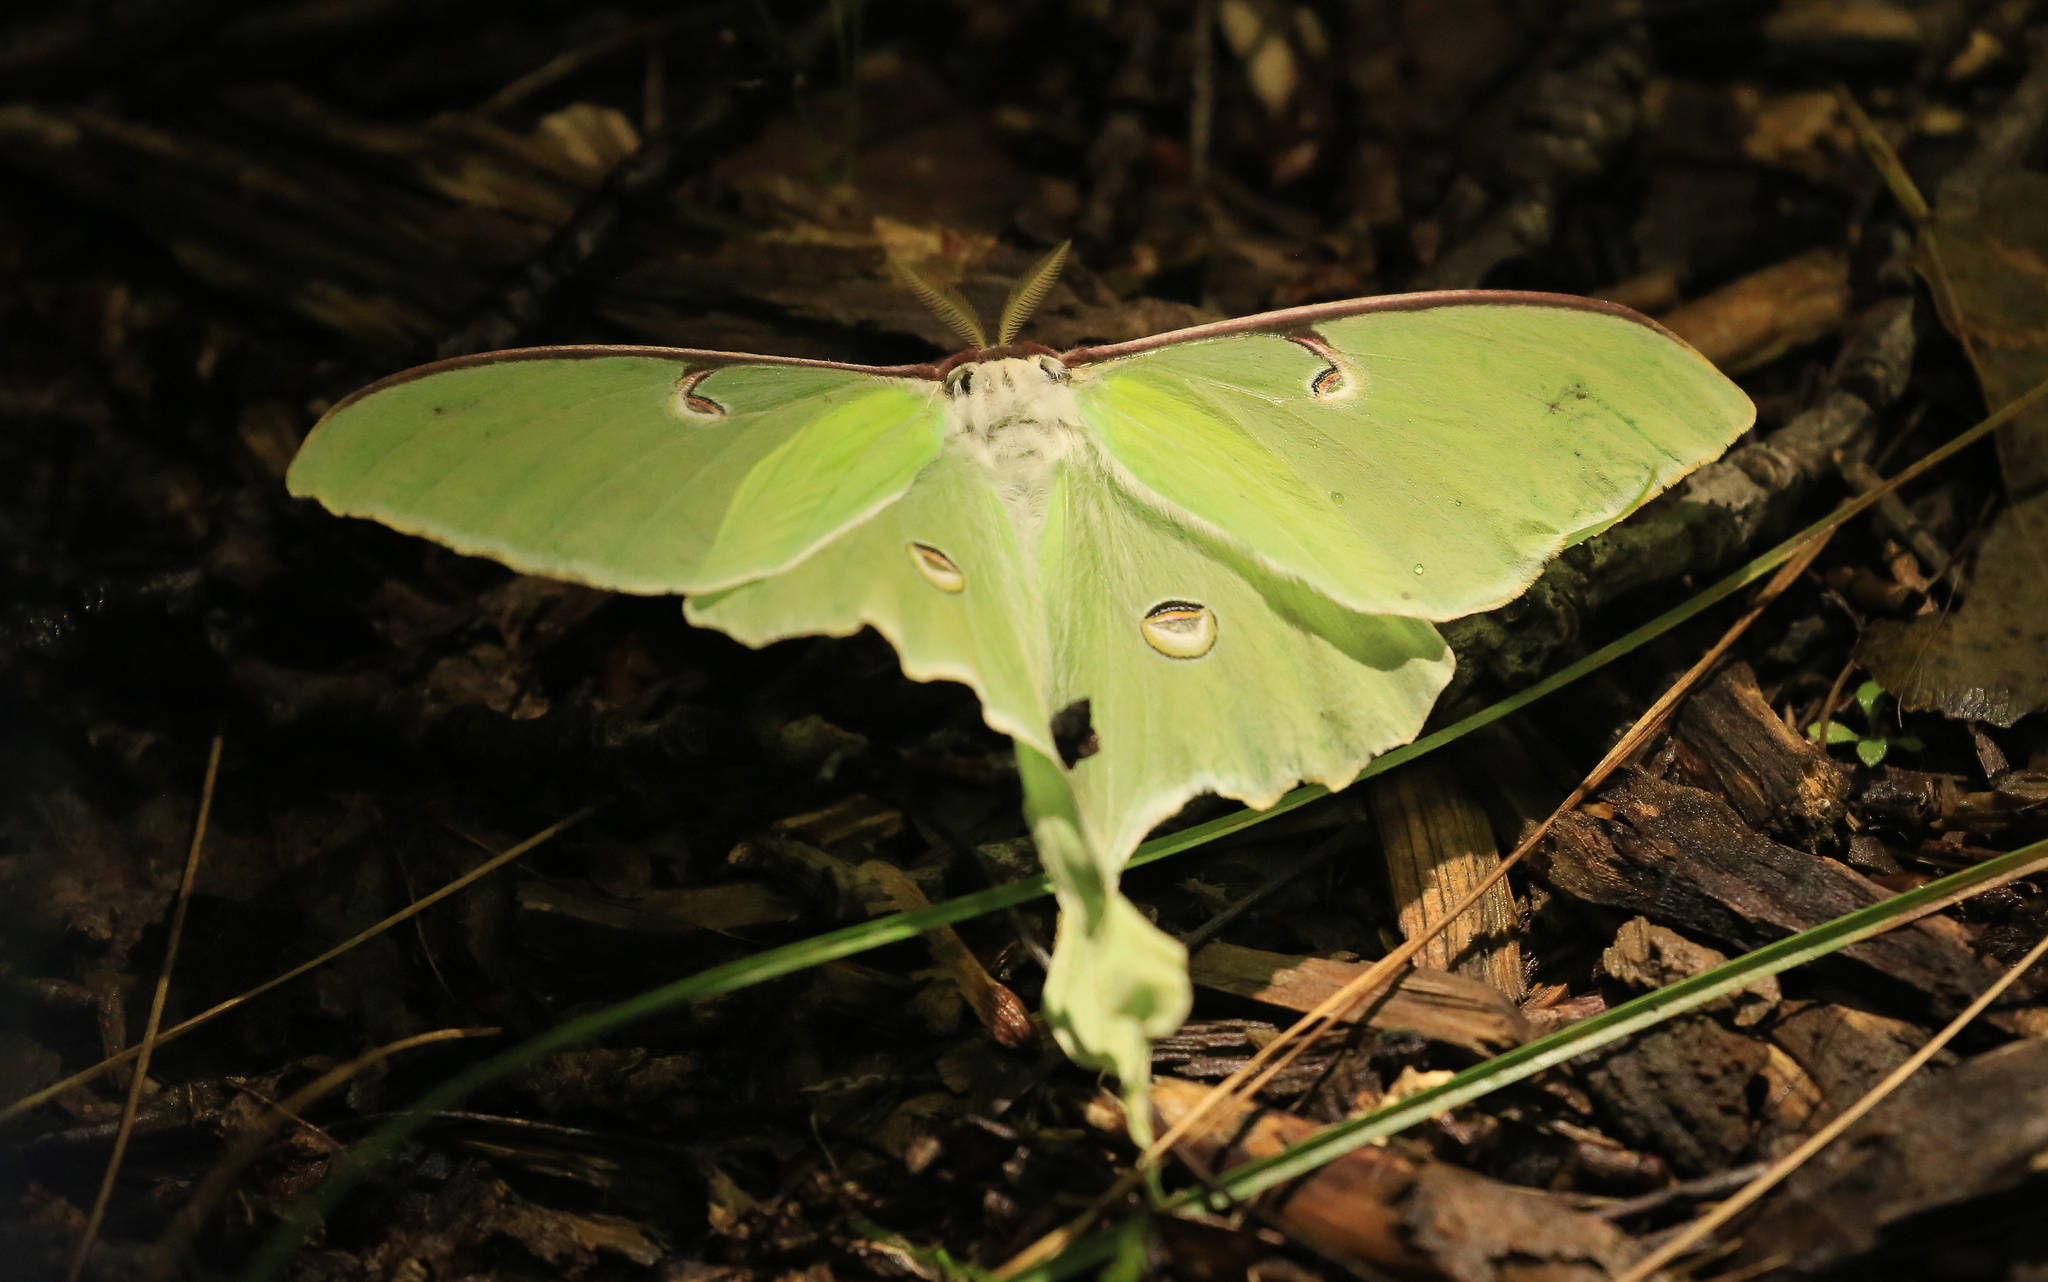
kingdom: Animalia
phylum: Arthropoda
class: Insecta
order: Lepidoptera
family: Saturniidae
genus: Actias
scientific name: Actias luna
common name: Luna moth
